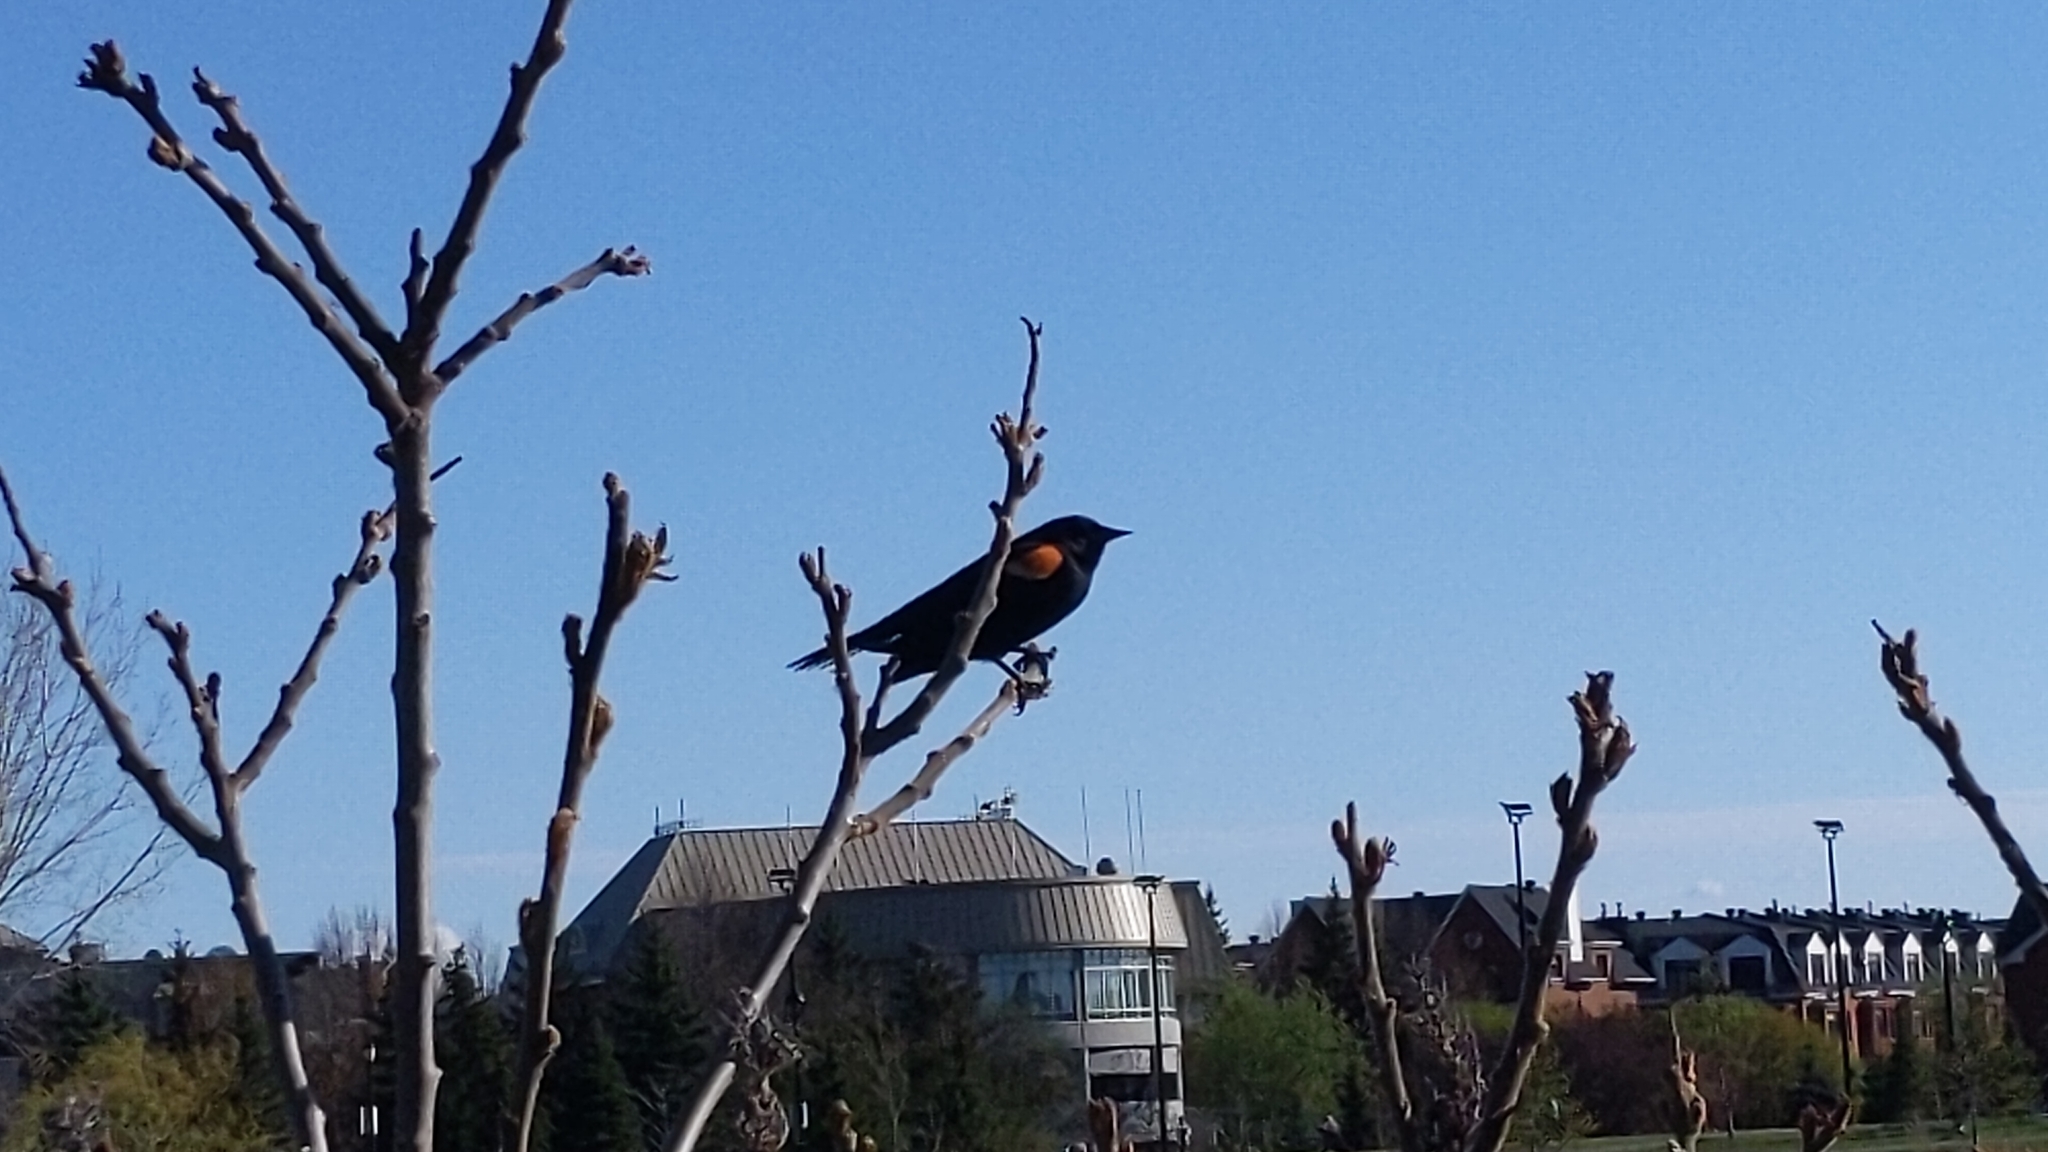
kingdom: Animalia
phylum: Chordata
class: Aves
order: Passeriformes
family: Icteridae
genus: Agelaius
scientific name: Agelaius phoeniceus
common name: Red-winged blackbird
